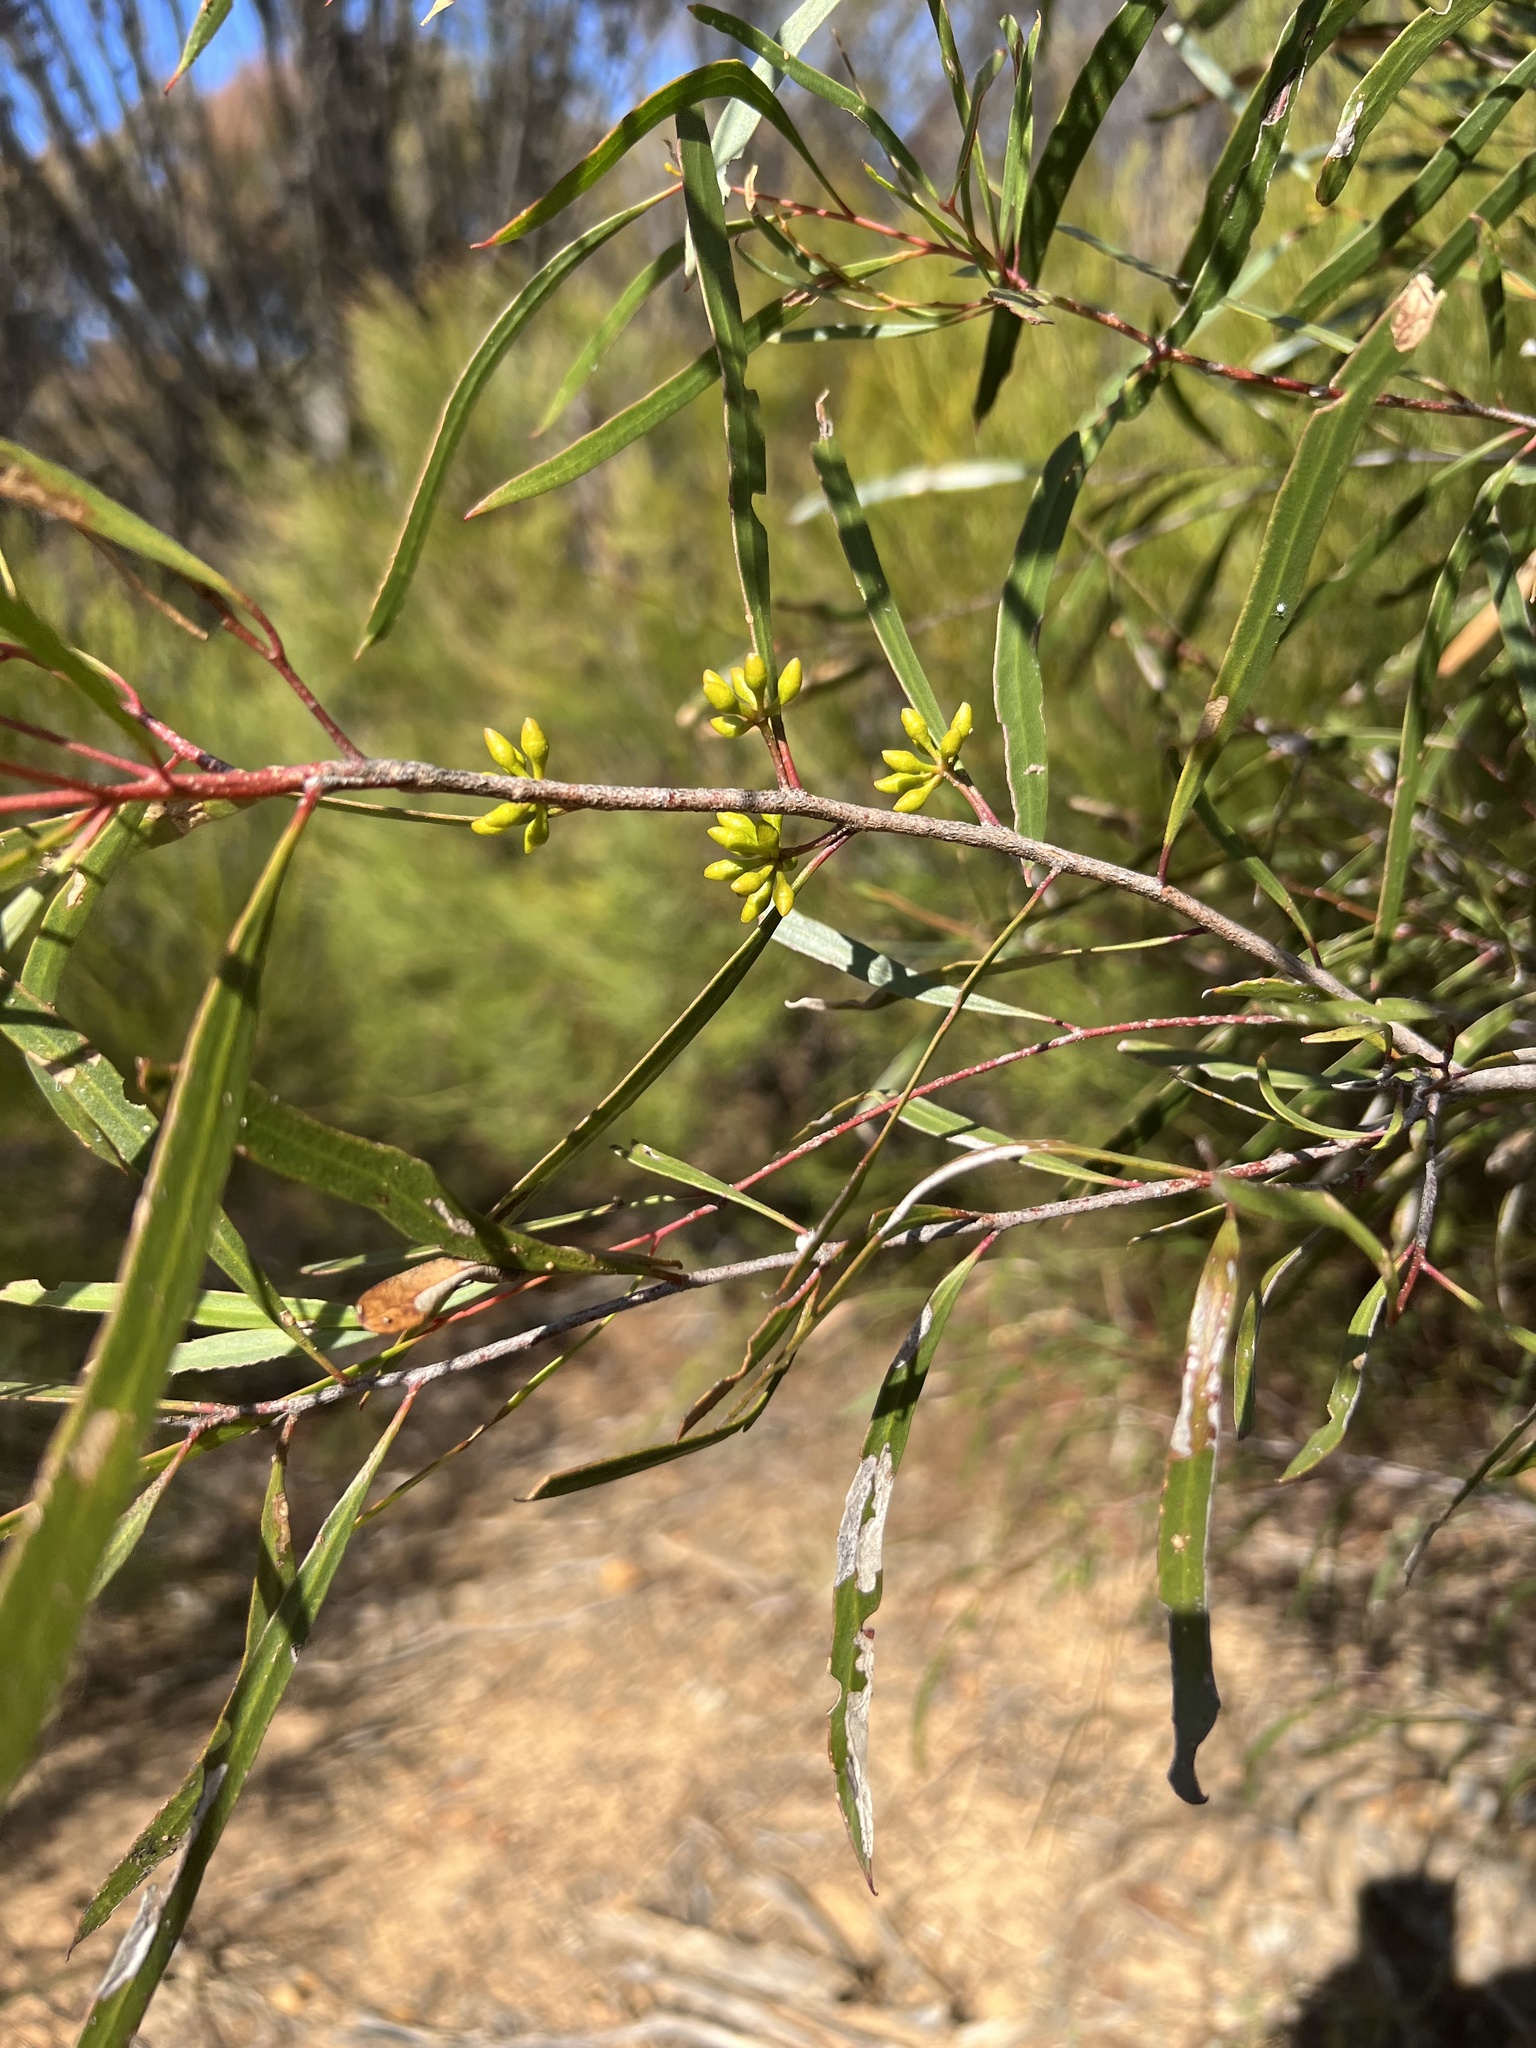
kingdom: Plantae
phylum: Tracheophyta
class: Magnoliopsida
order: Myrtales
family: Myrtaceae
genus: Eucalyptus
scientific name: Eucalyptus viridis
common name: Green mallee
